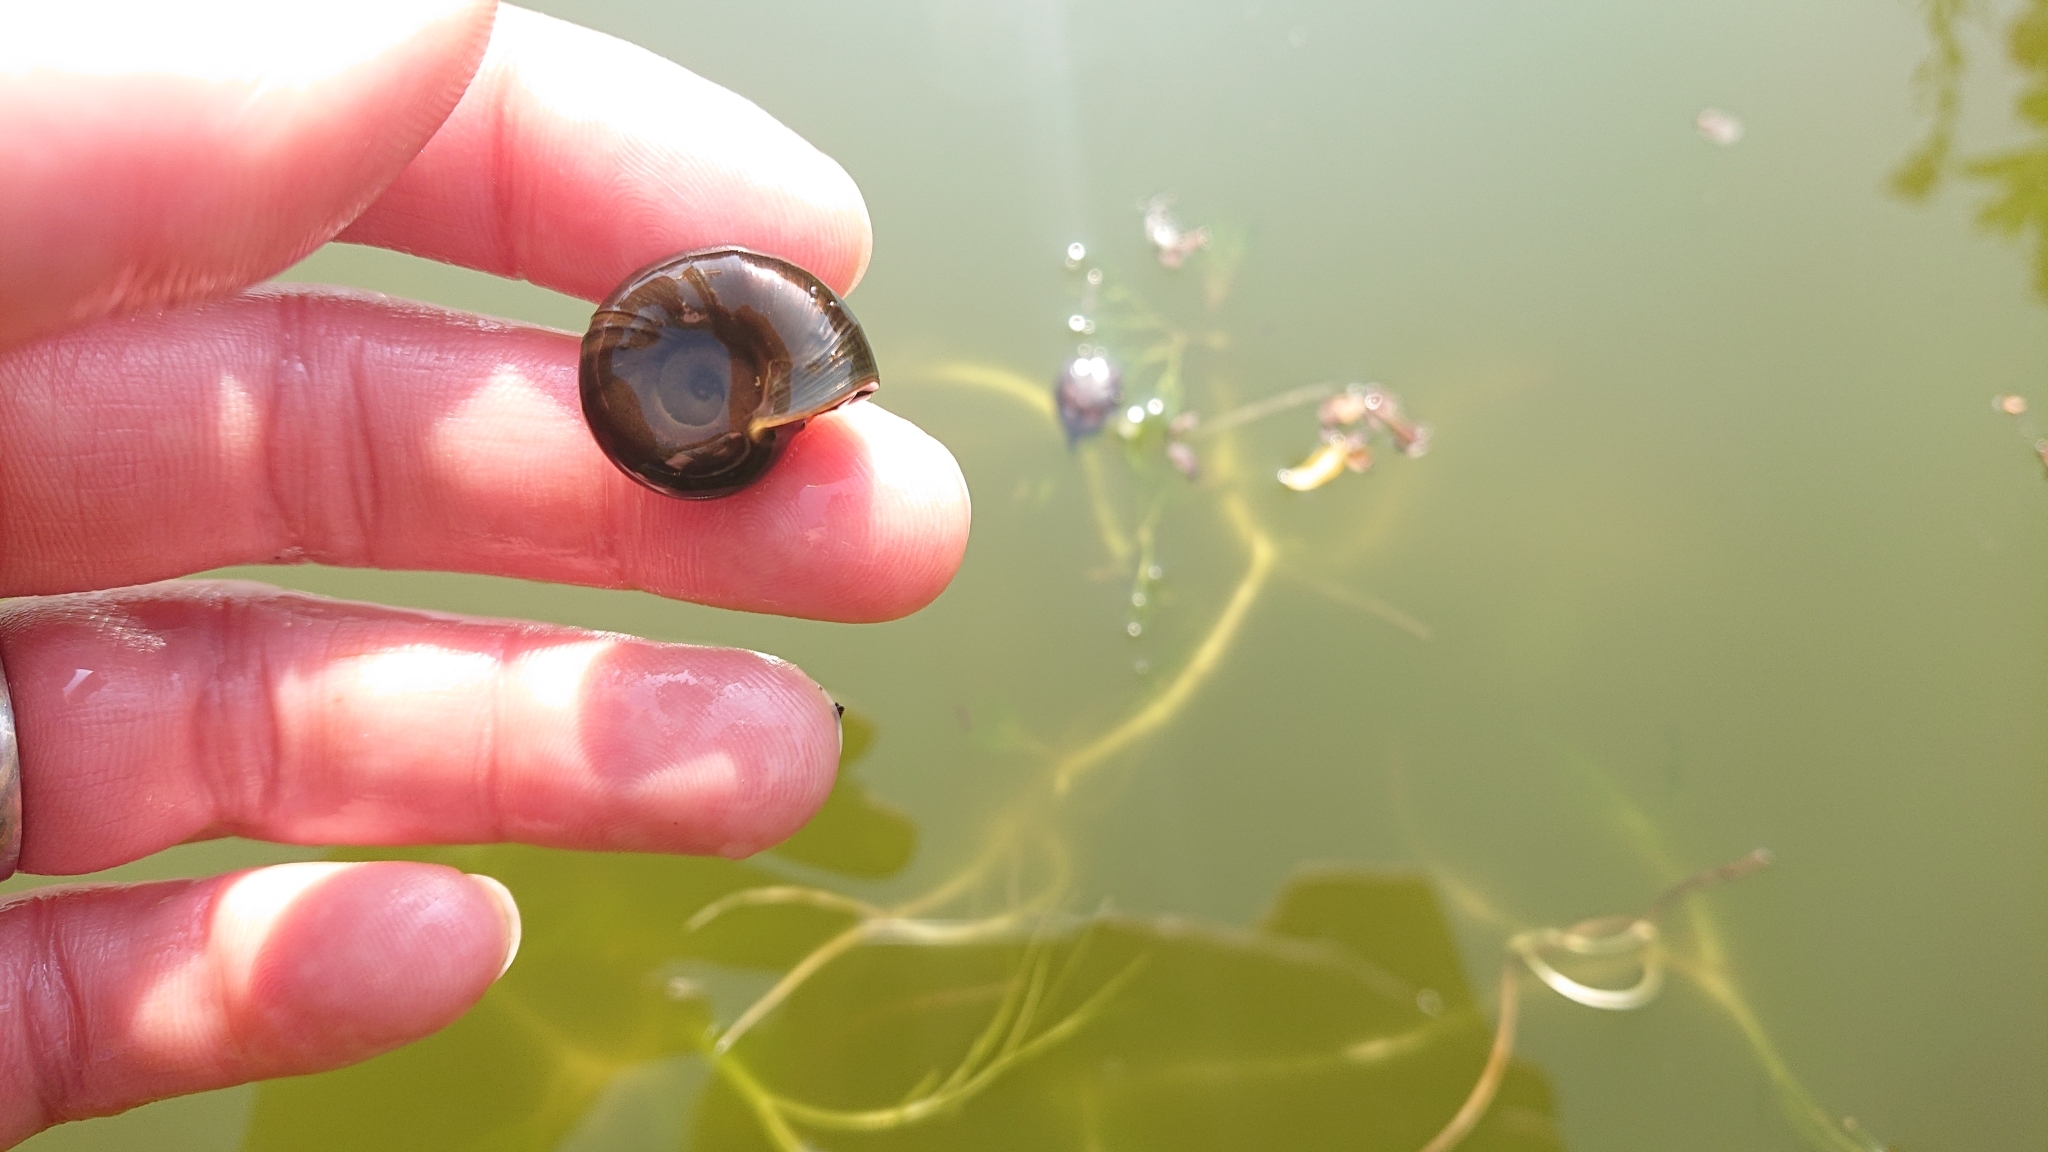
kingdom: Animalia
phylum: Mollusca
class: Gastropoda
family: Planorbidae
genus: Planorbarius
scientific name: Planorbarius corneus
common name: Great ramshorn
